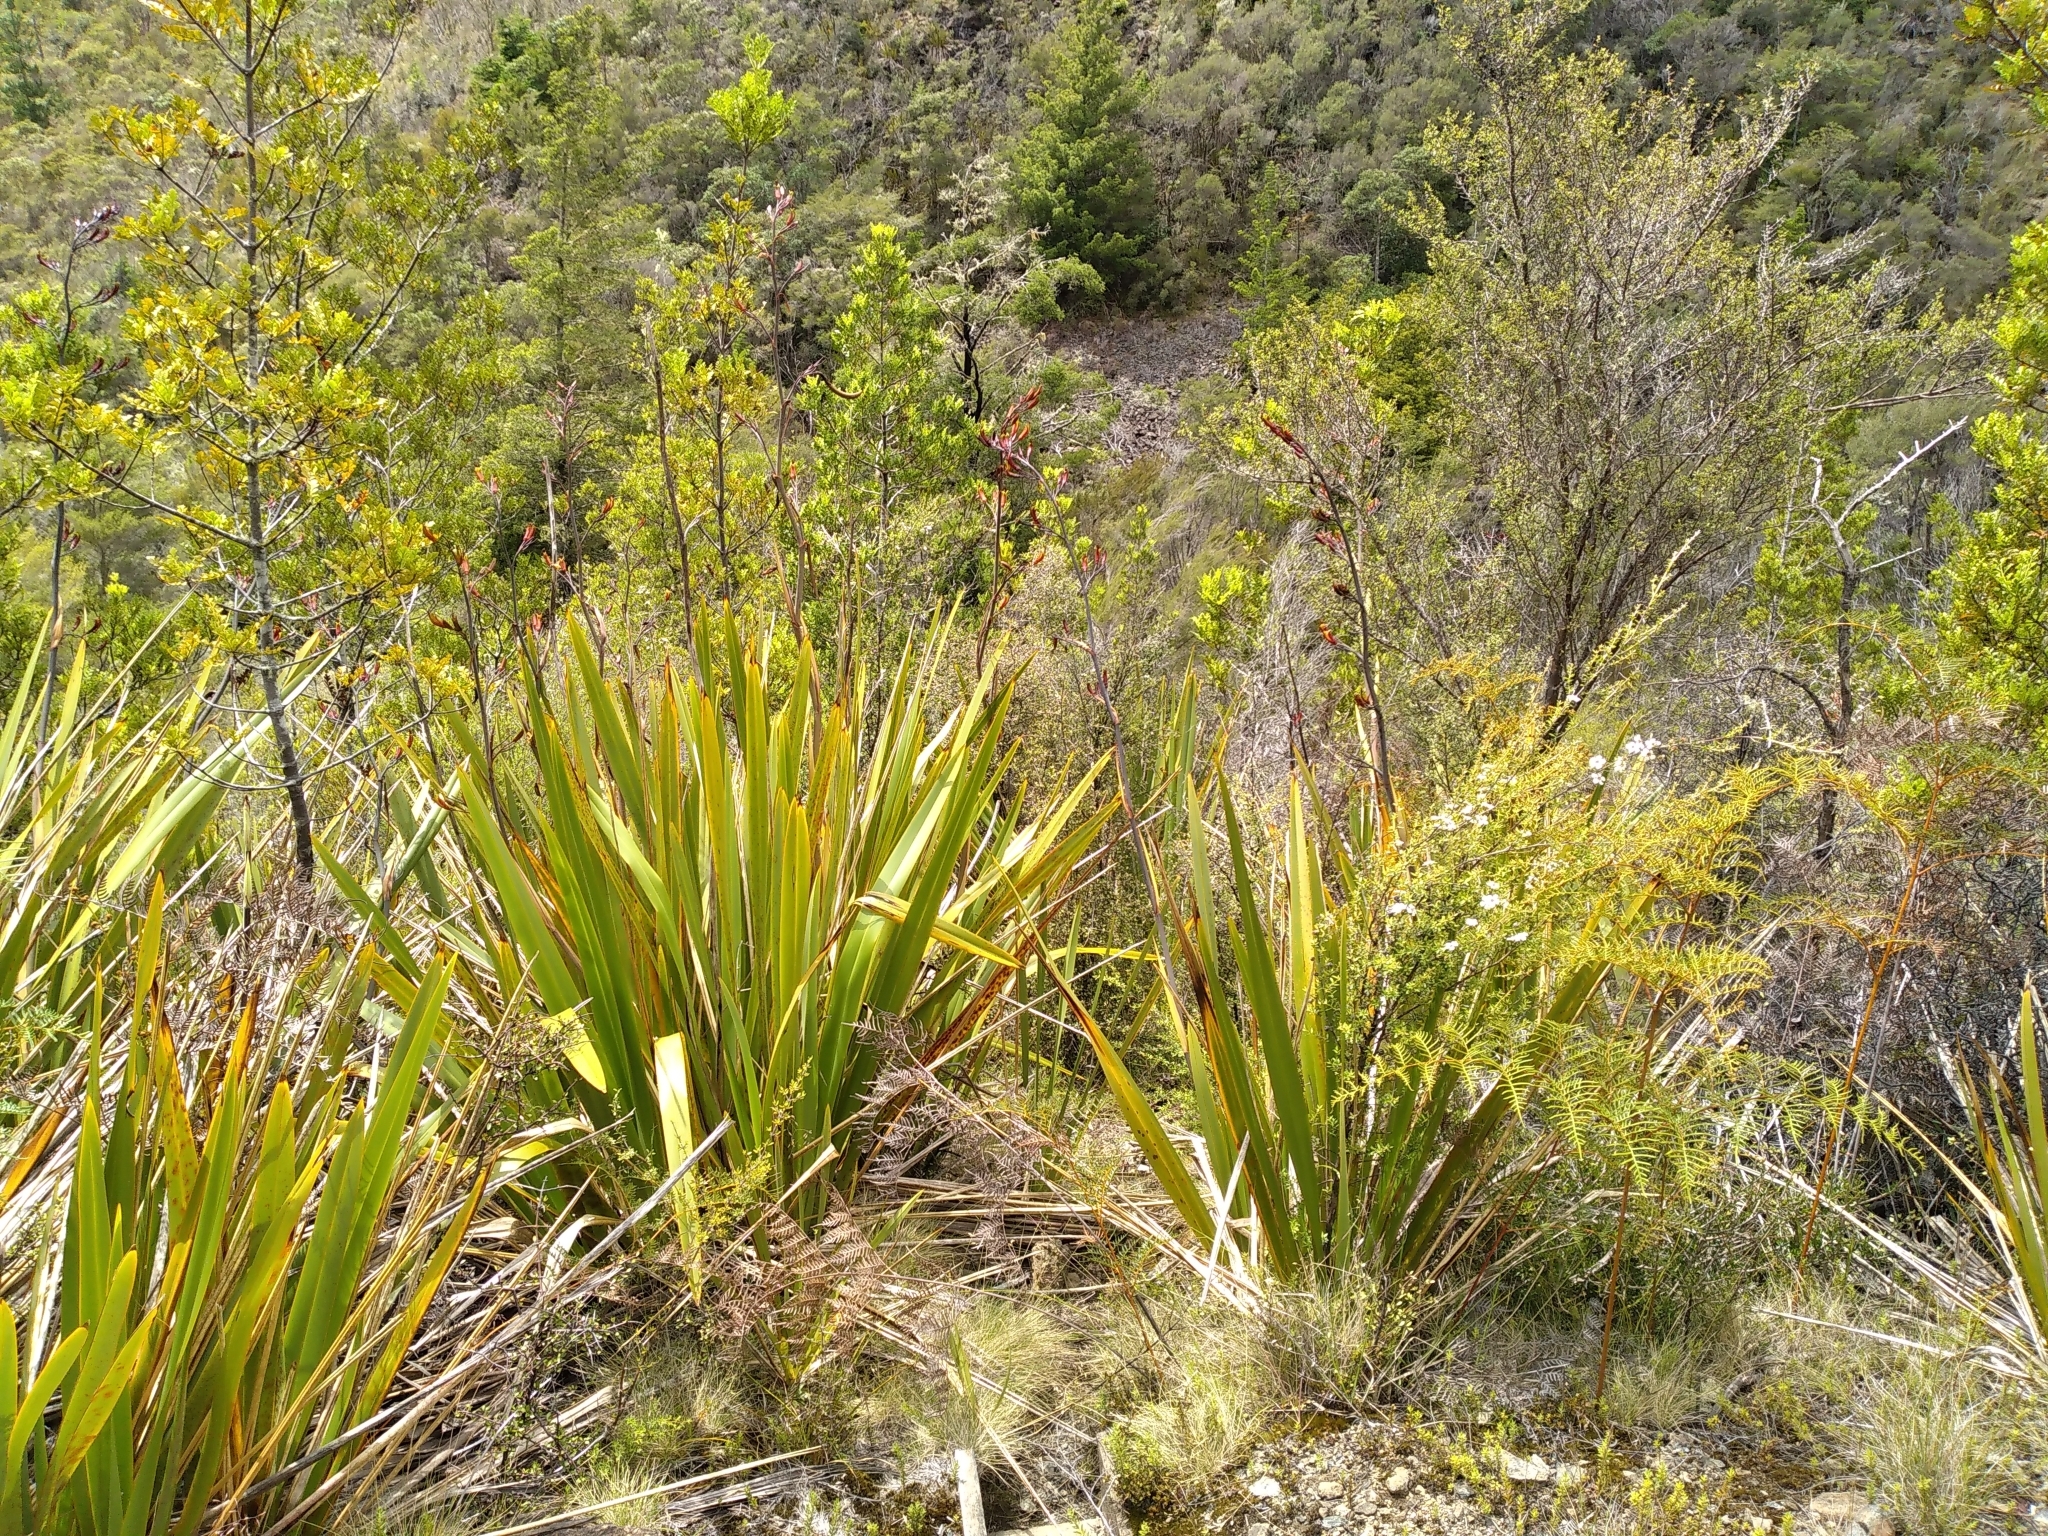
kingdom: Plantae
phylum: Tracheophyta
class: Liliopsida
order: Asparagales
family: Asphodelaceae
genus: Phormium
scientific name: Phormium tenax
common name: New zealand flax
